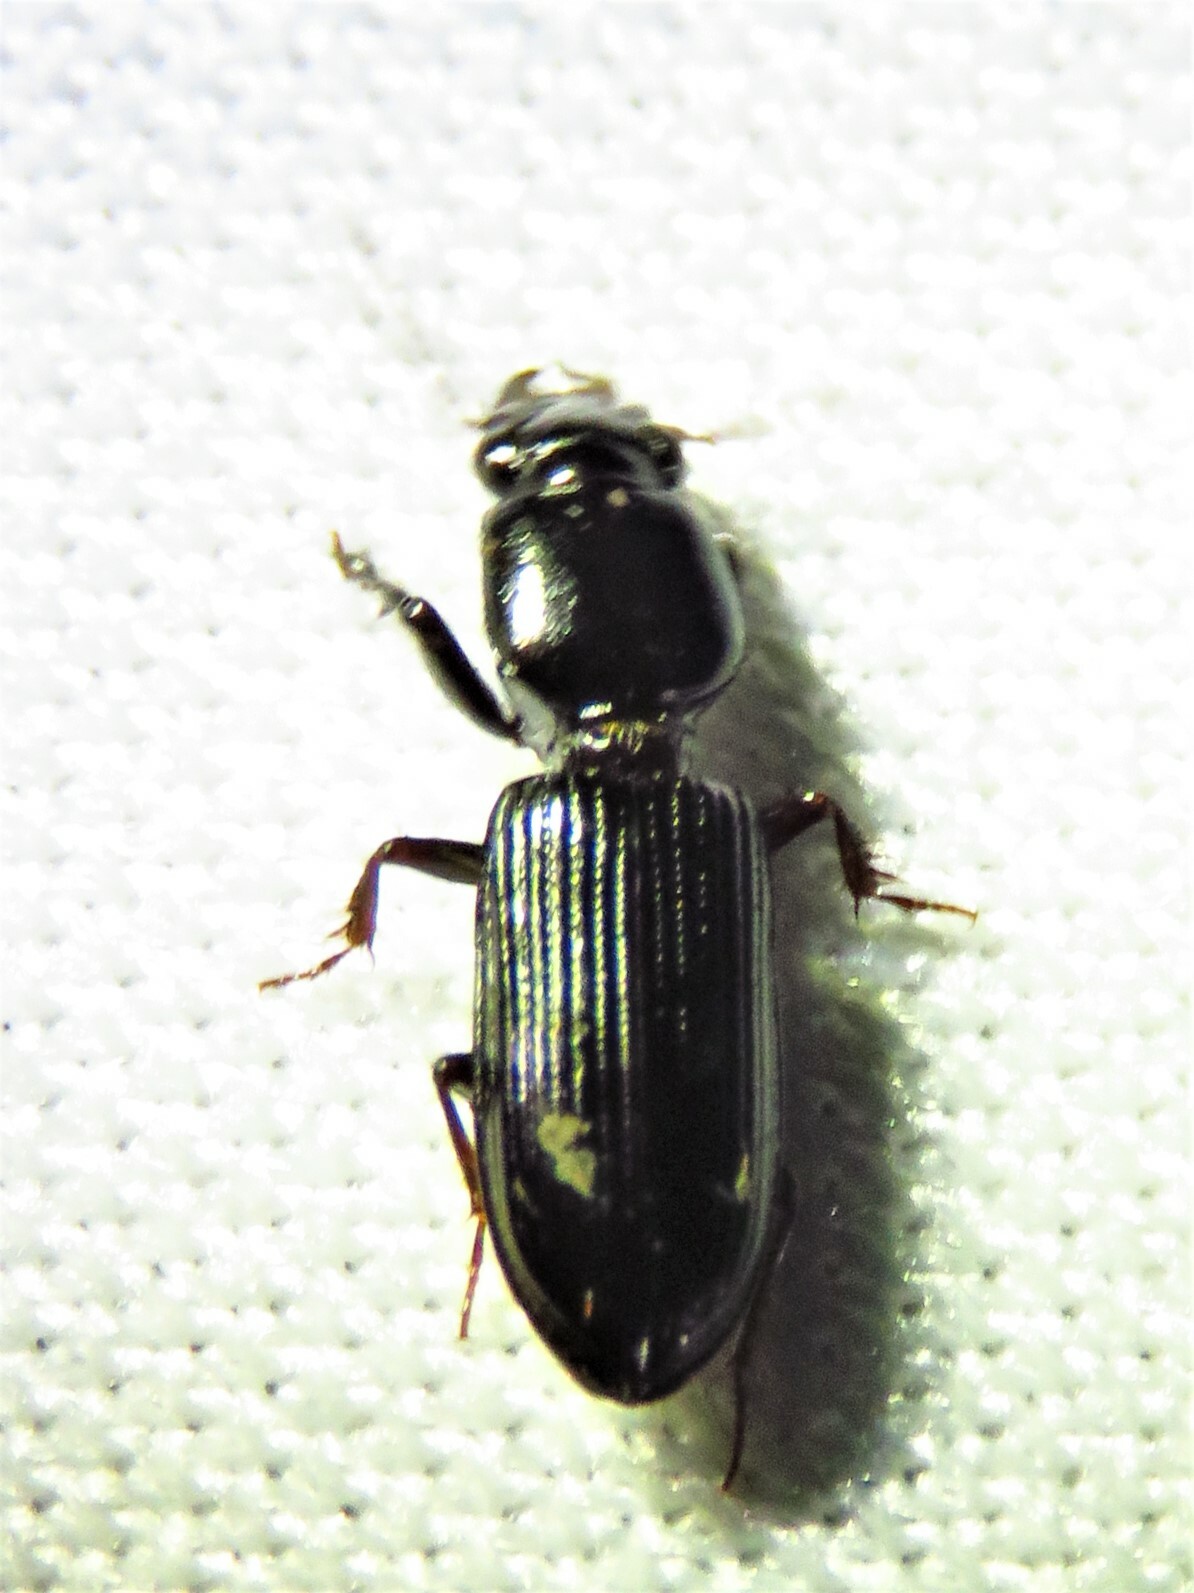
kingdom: Animalia
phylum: Arthropoda
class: Insecta
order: Coleoptera
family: Carabidae
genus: Semiclivina
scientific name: Semiclivina dentipes
